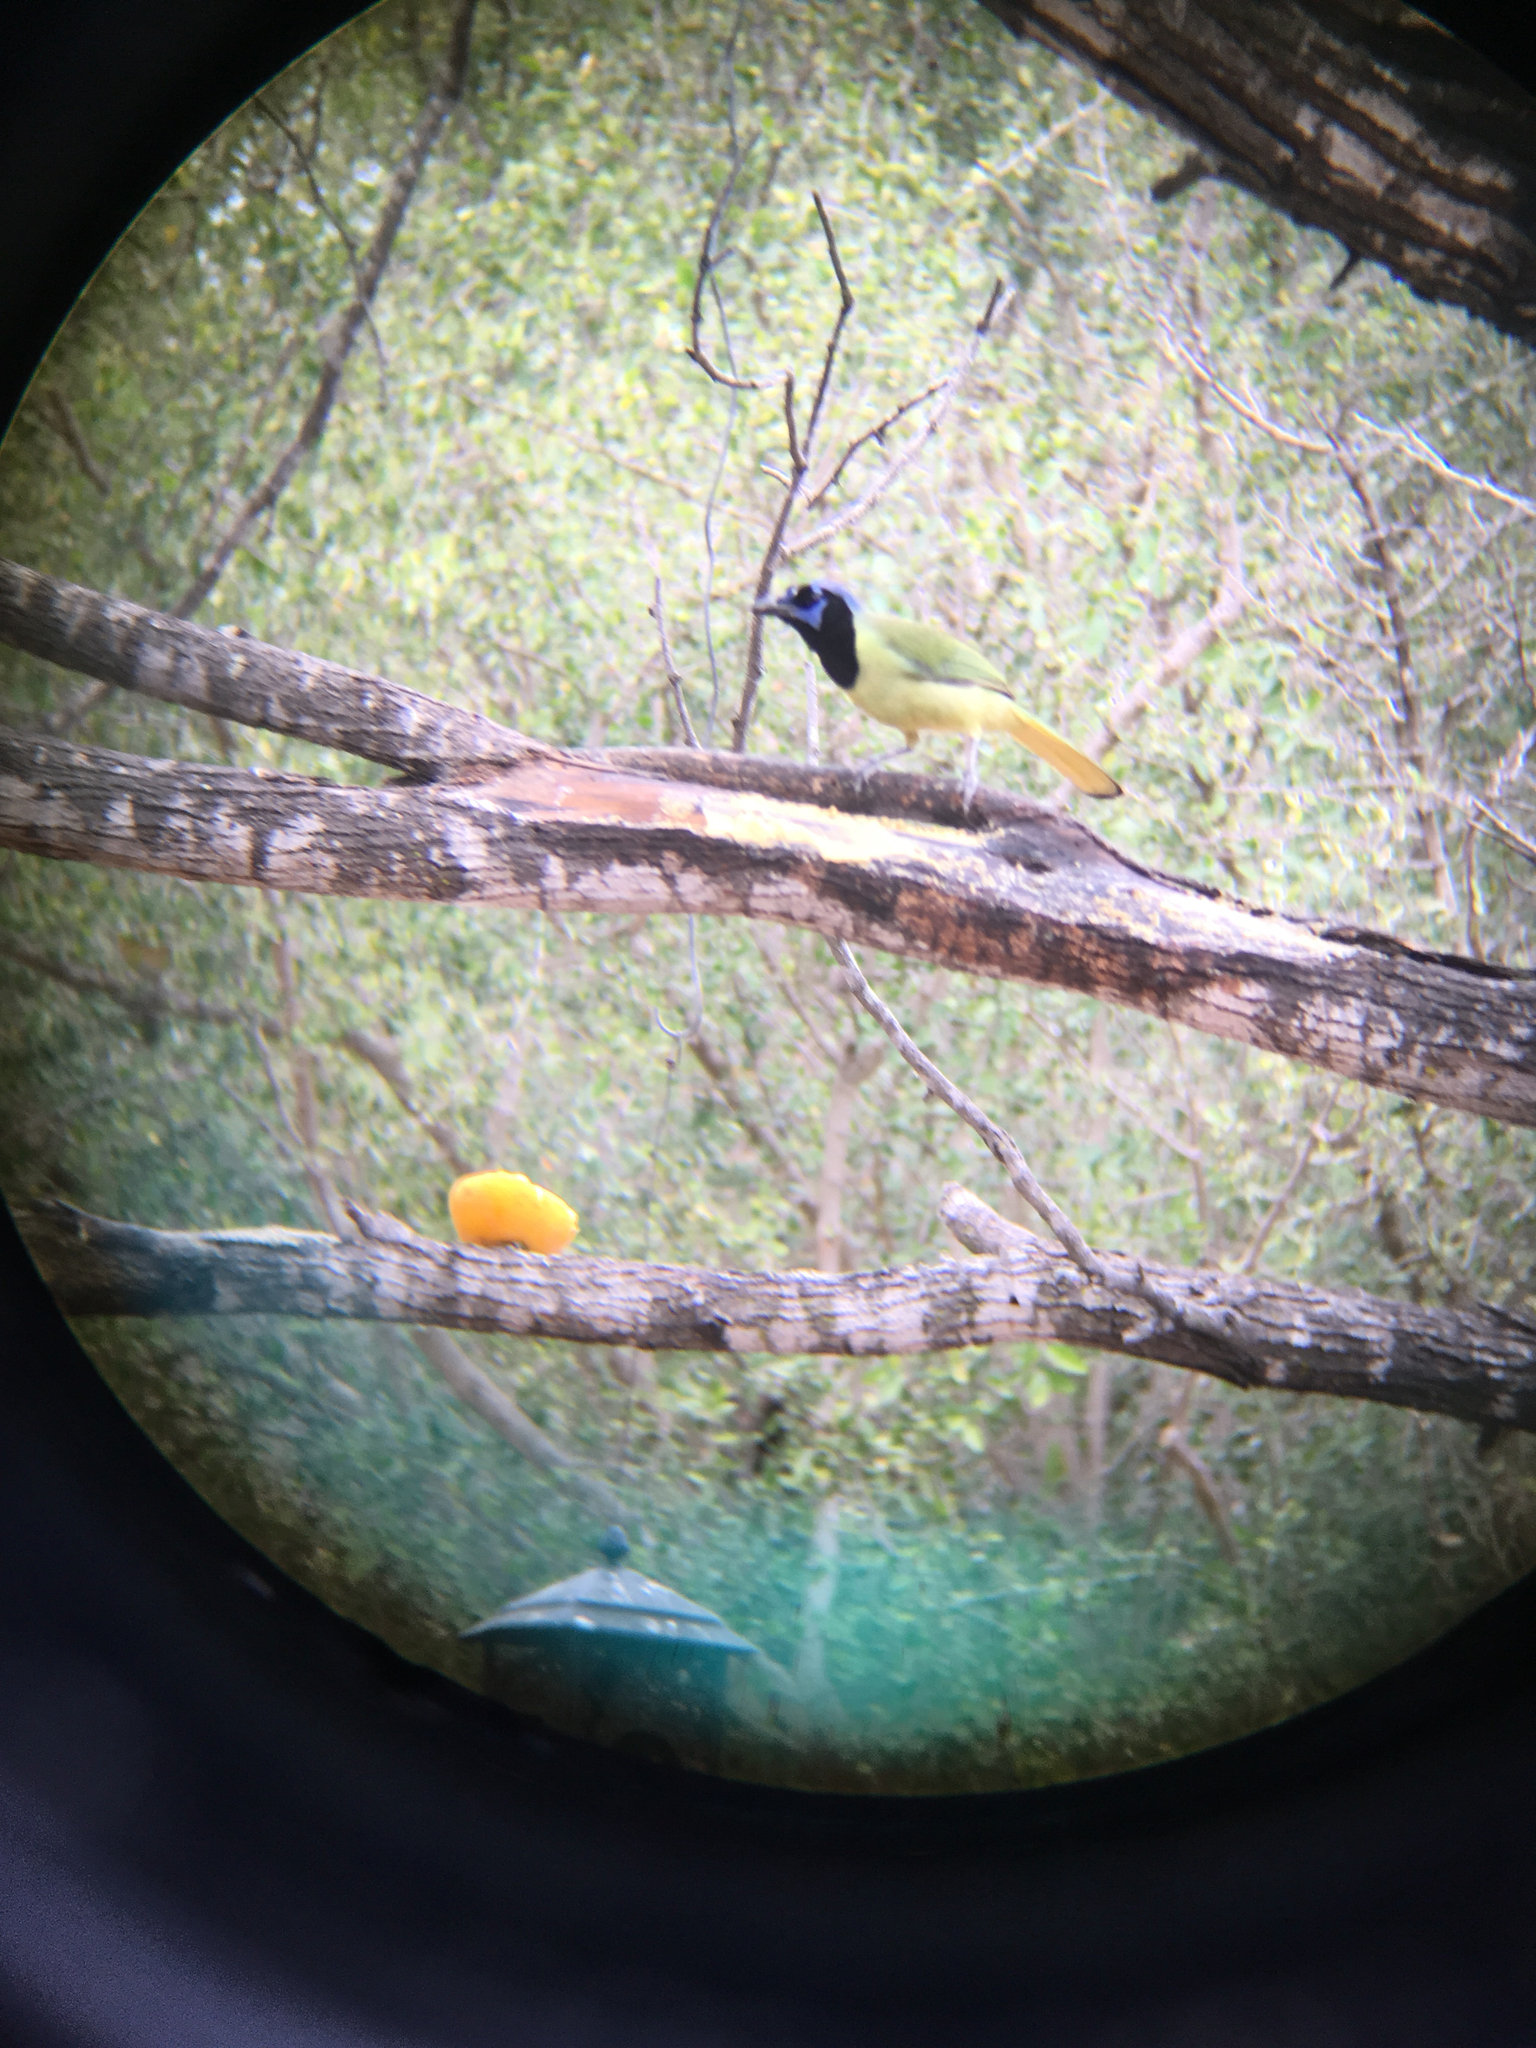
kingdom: Animalia
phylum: Chordata
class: Aves
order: Passeriformes
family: Corvidae
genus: Cyanocorax
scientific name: Cyanocorax yncas
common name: Green jay
